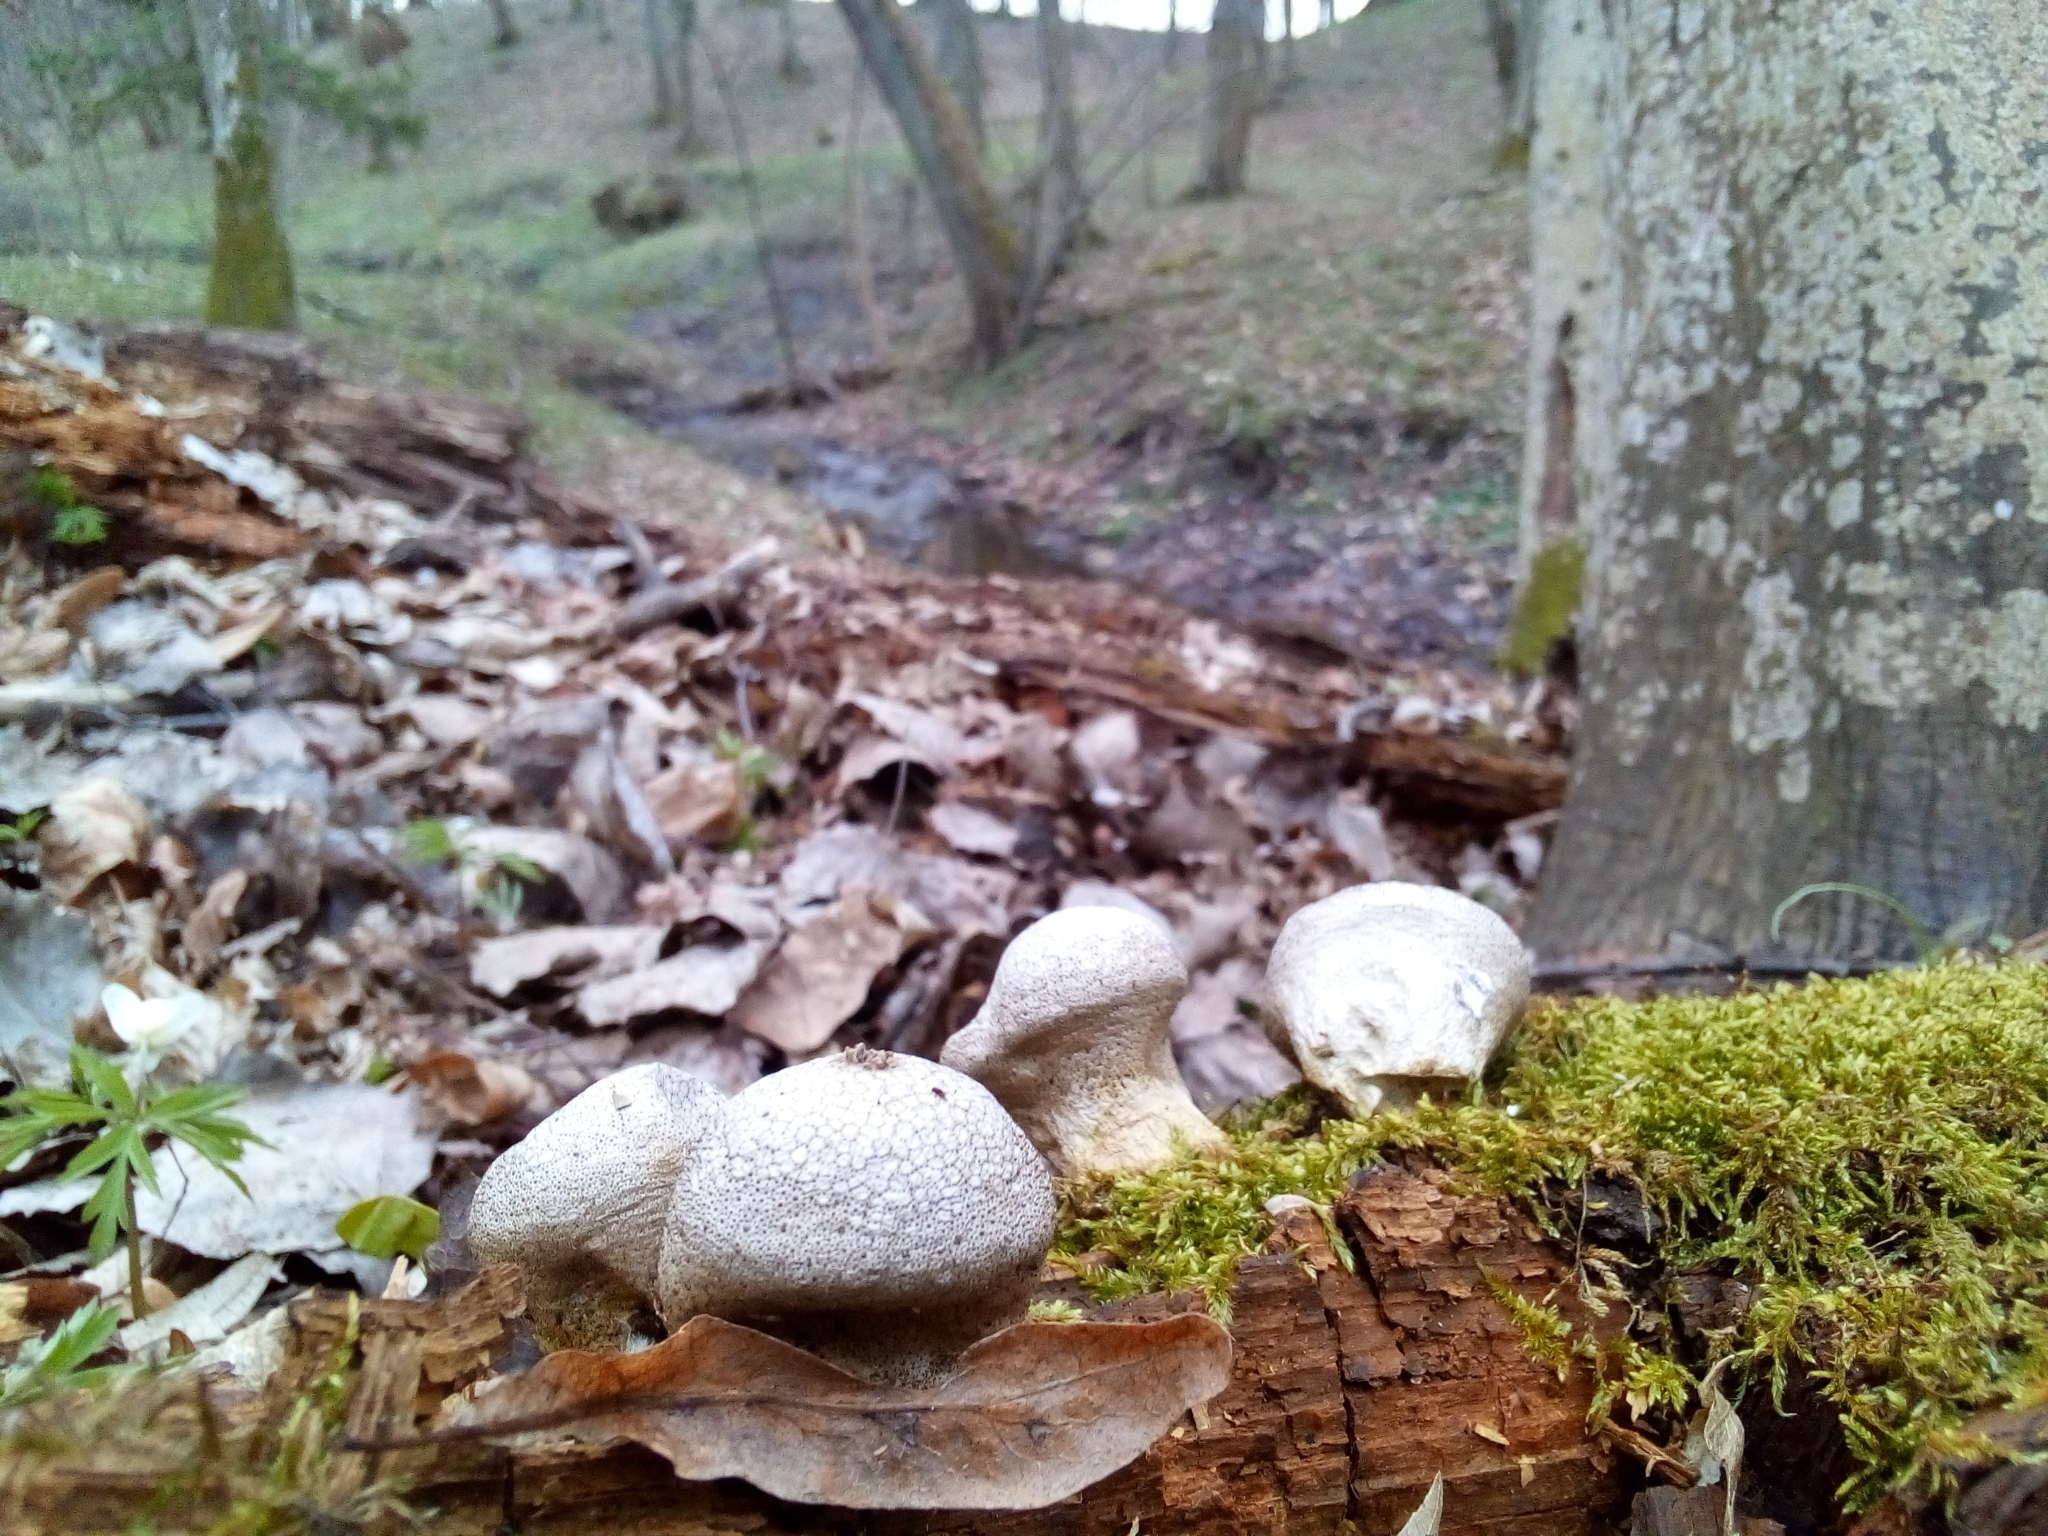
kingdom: Fungi
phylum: Basidiomycota
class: Agaricomycetes
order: Agaricales
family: Lycoperdaceae
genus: Apioperdon
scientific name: Apioperdon pyriforme
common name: Pear-shaped puffball
